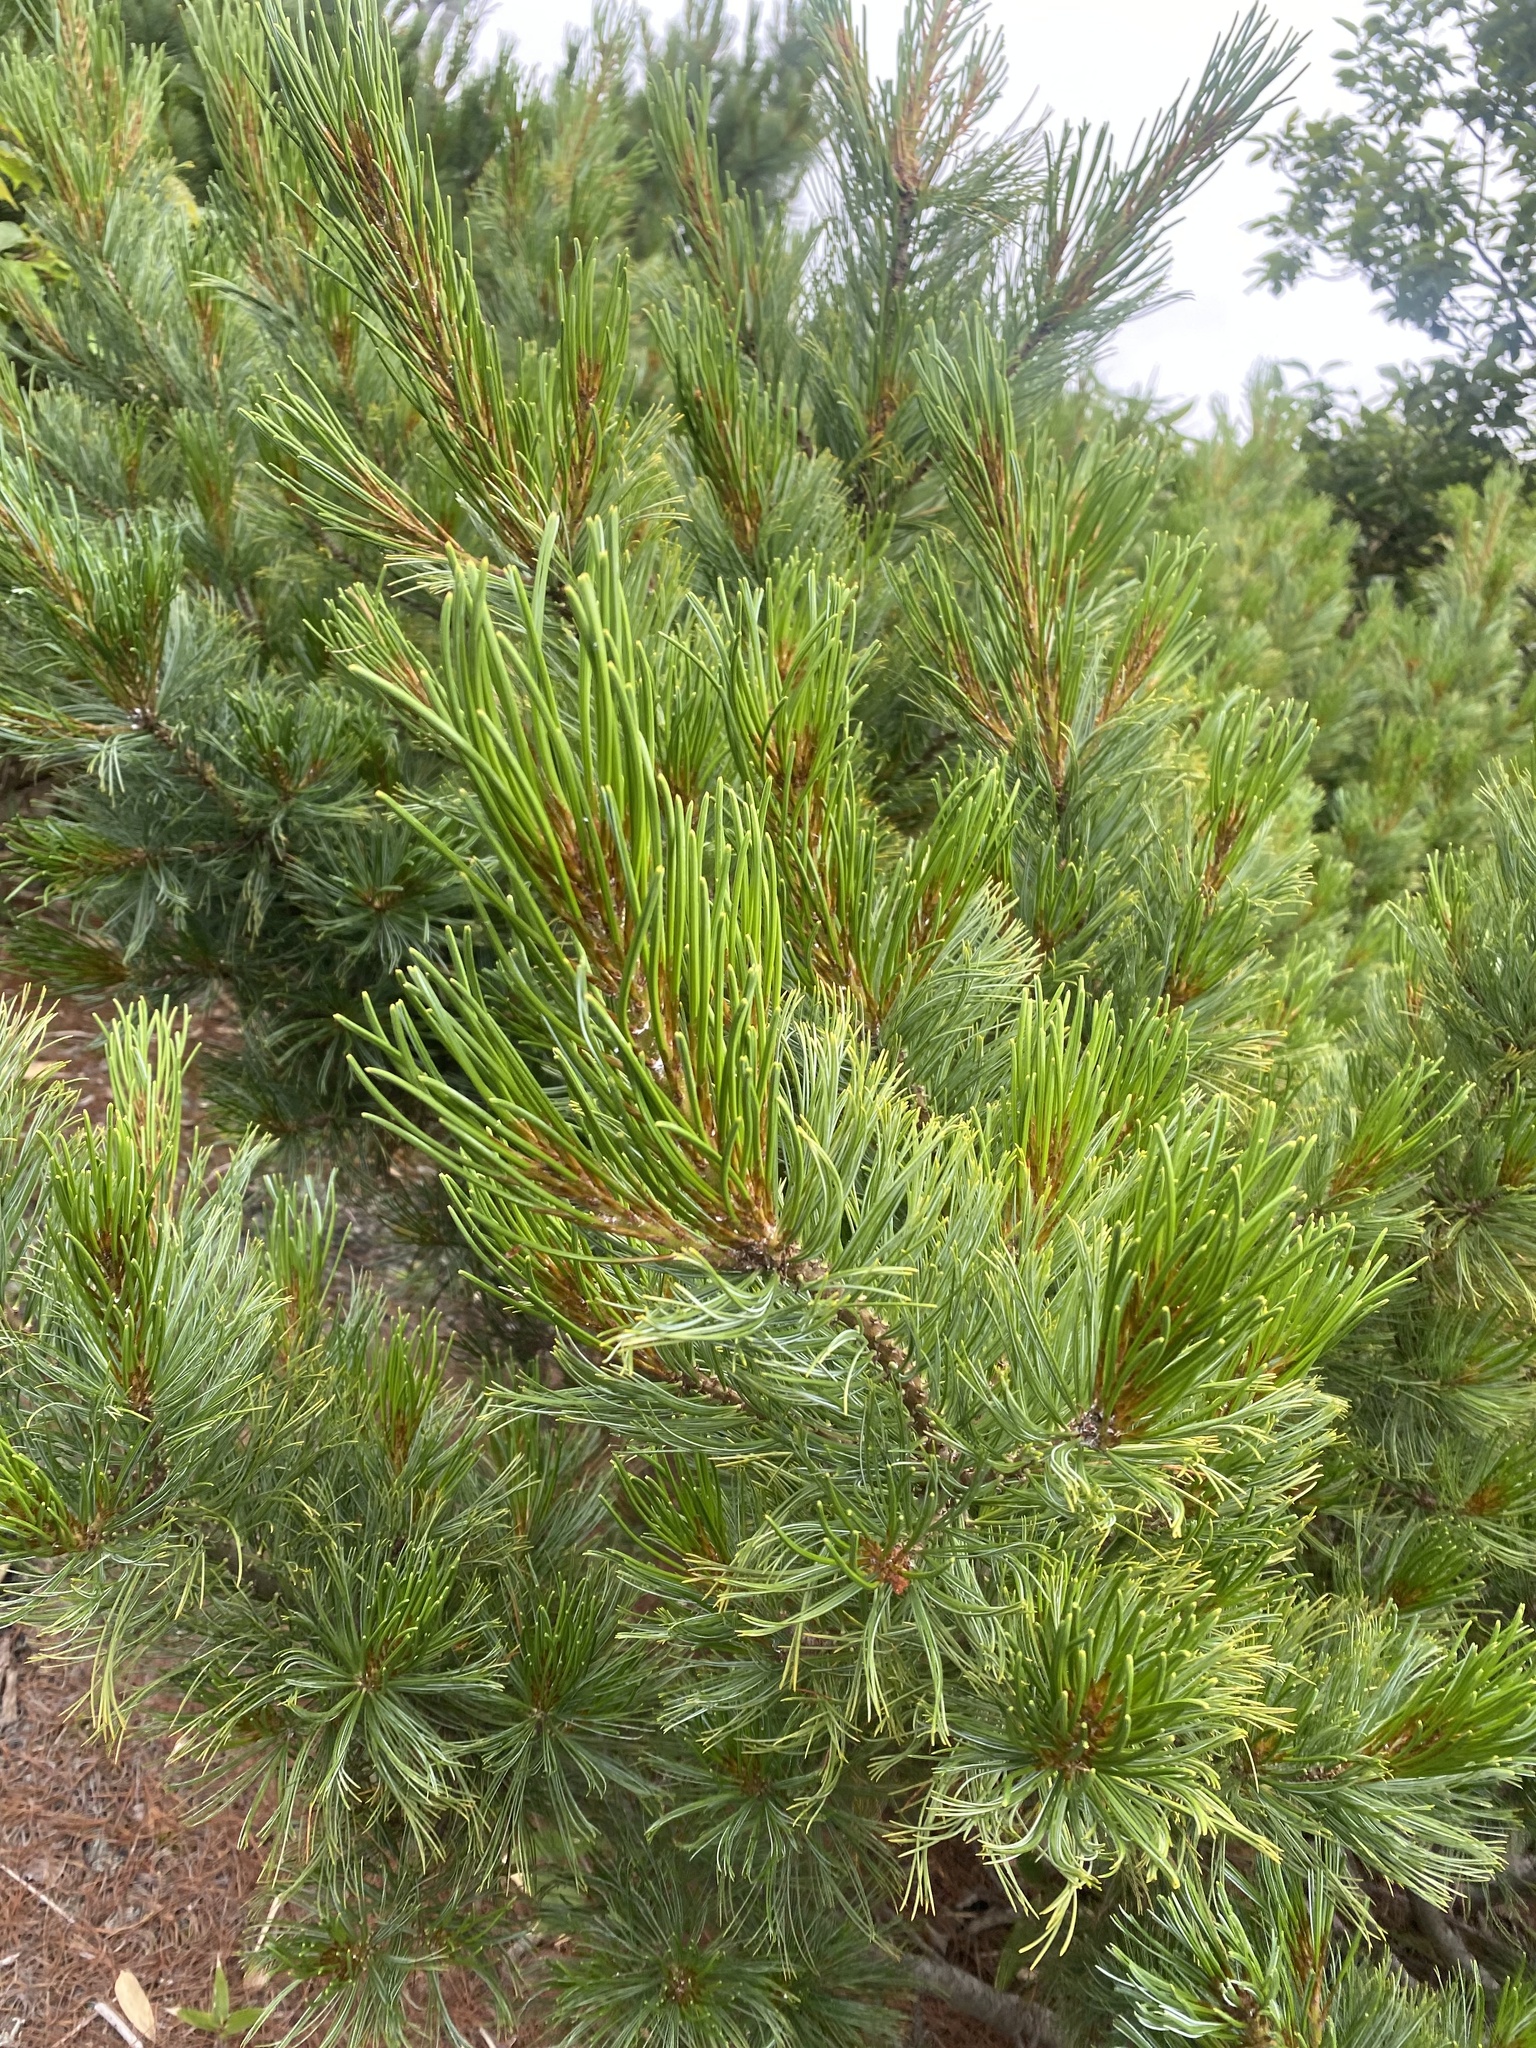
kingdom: Plantae
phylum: Tracheophyta
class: Pinopsida
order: Pinales
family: Pinaceae
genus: Pinus
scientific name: Pinus pumila
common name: Dwarf siberian pine
